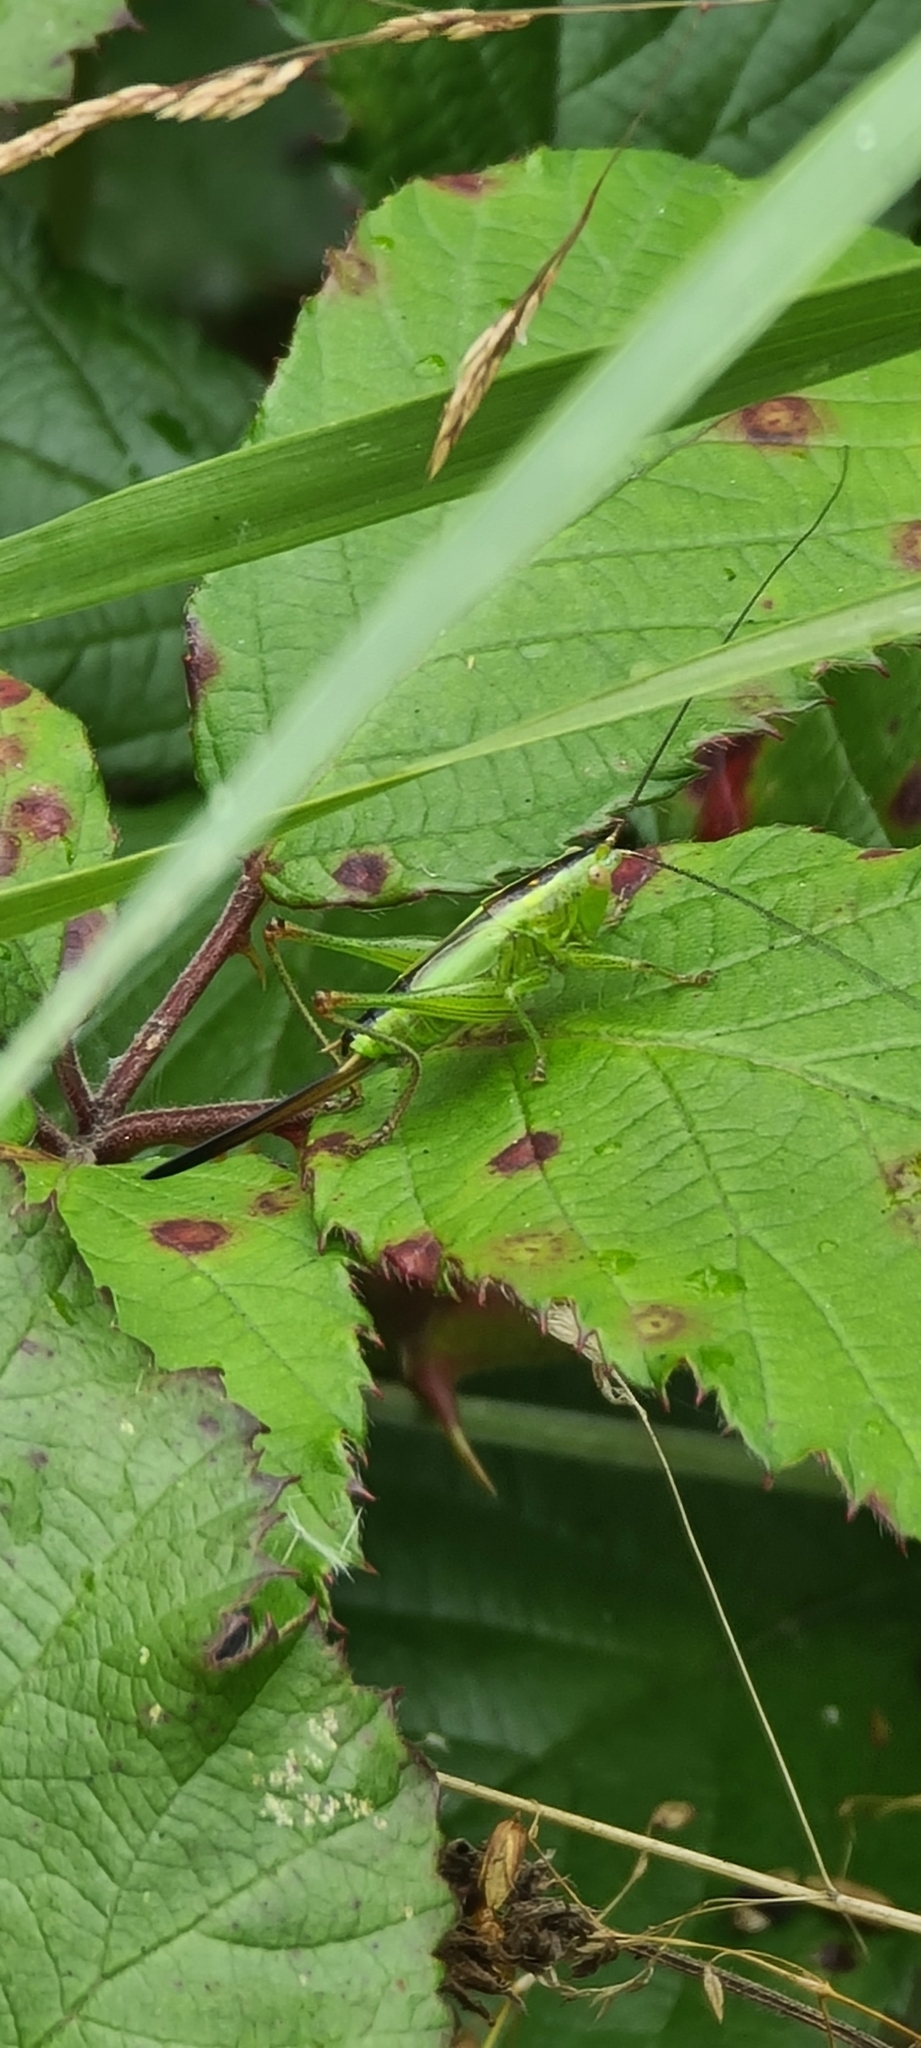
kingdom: Animalia
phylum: Arthropoda
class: Insecta
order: Orthoptera
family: Tettigoniidae
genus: Conocephalus
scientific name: Conocephalus fuscus
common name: Long-winged conehead
